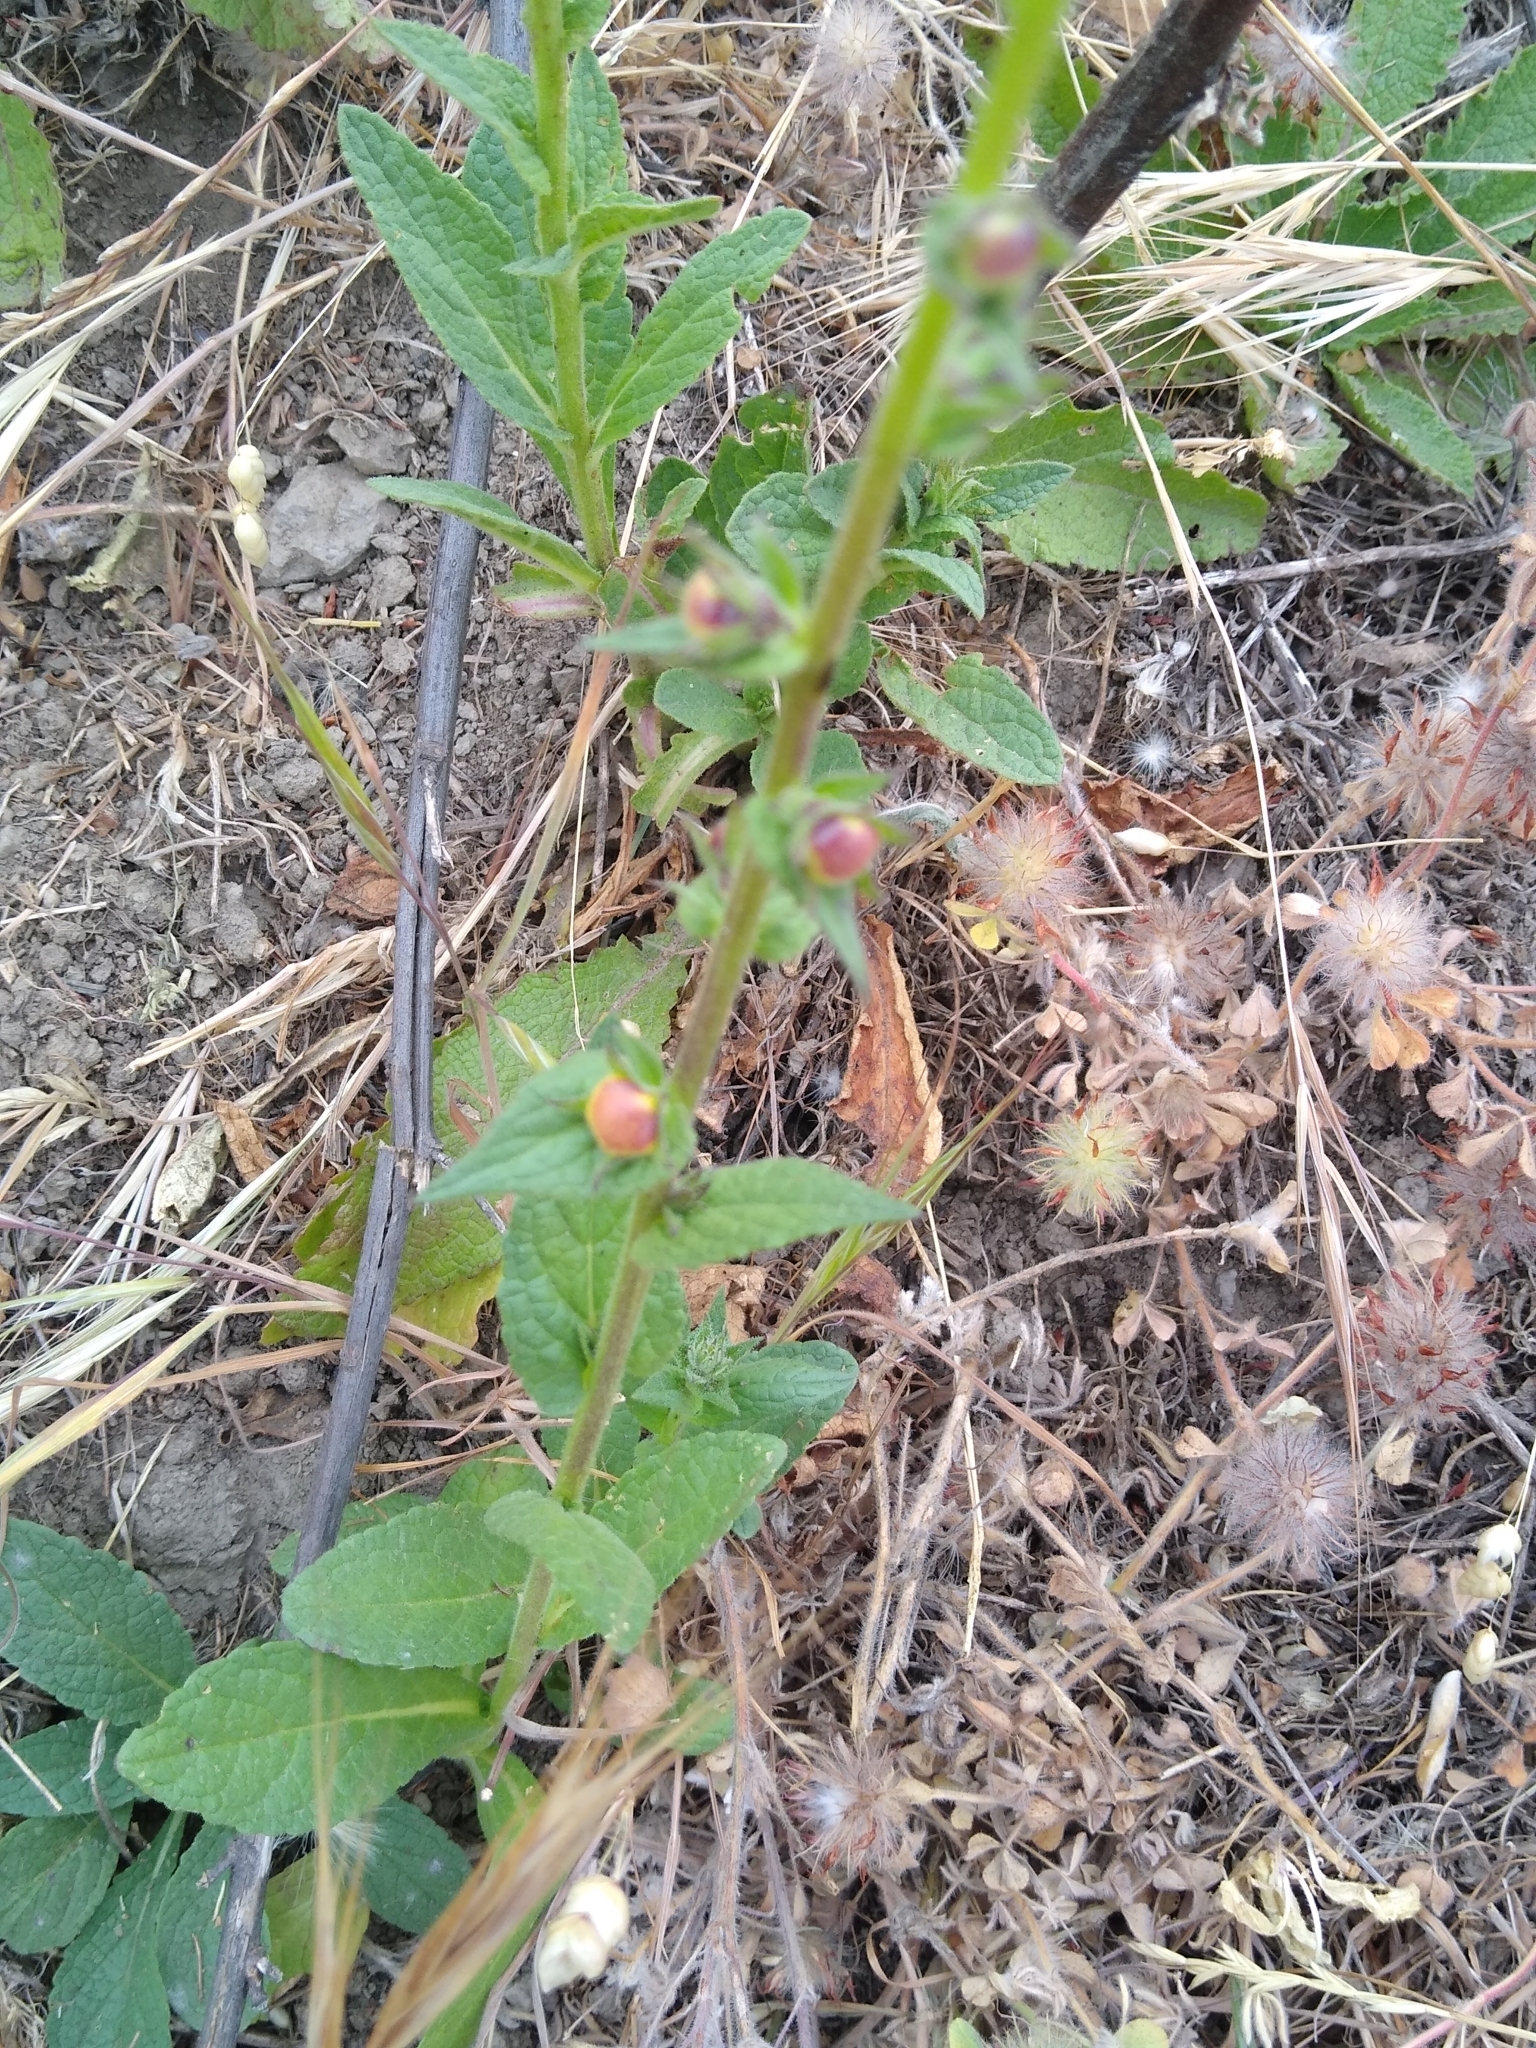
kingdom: Plantae
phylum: Tracheophyta
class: Magnoliopsida
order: Lamiales
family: Scrophulariaceae
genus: Verbascum
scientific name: Verbascum virgatum
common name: Twiggy mullein
